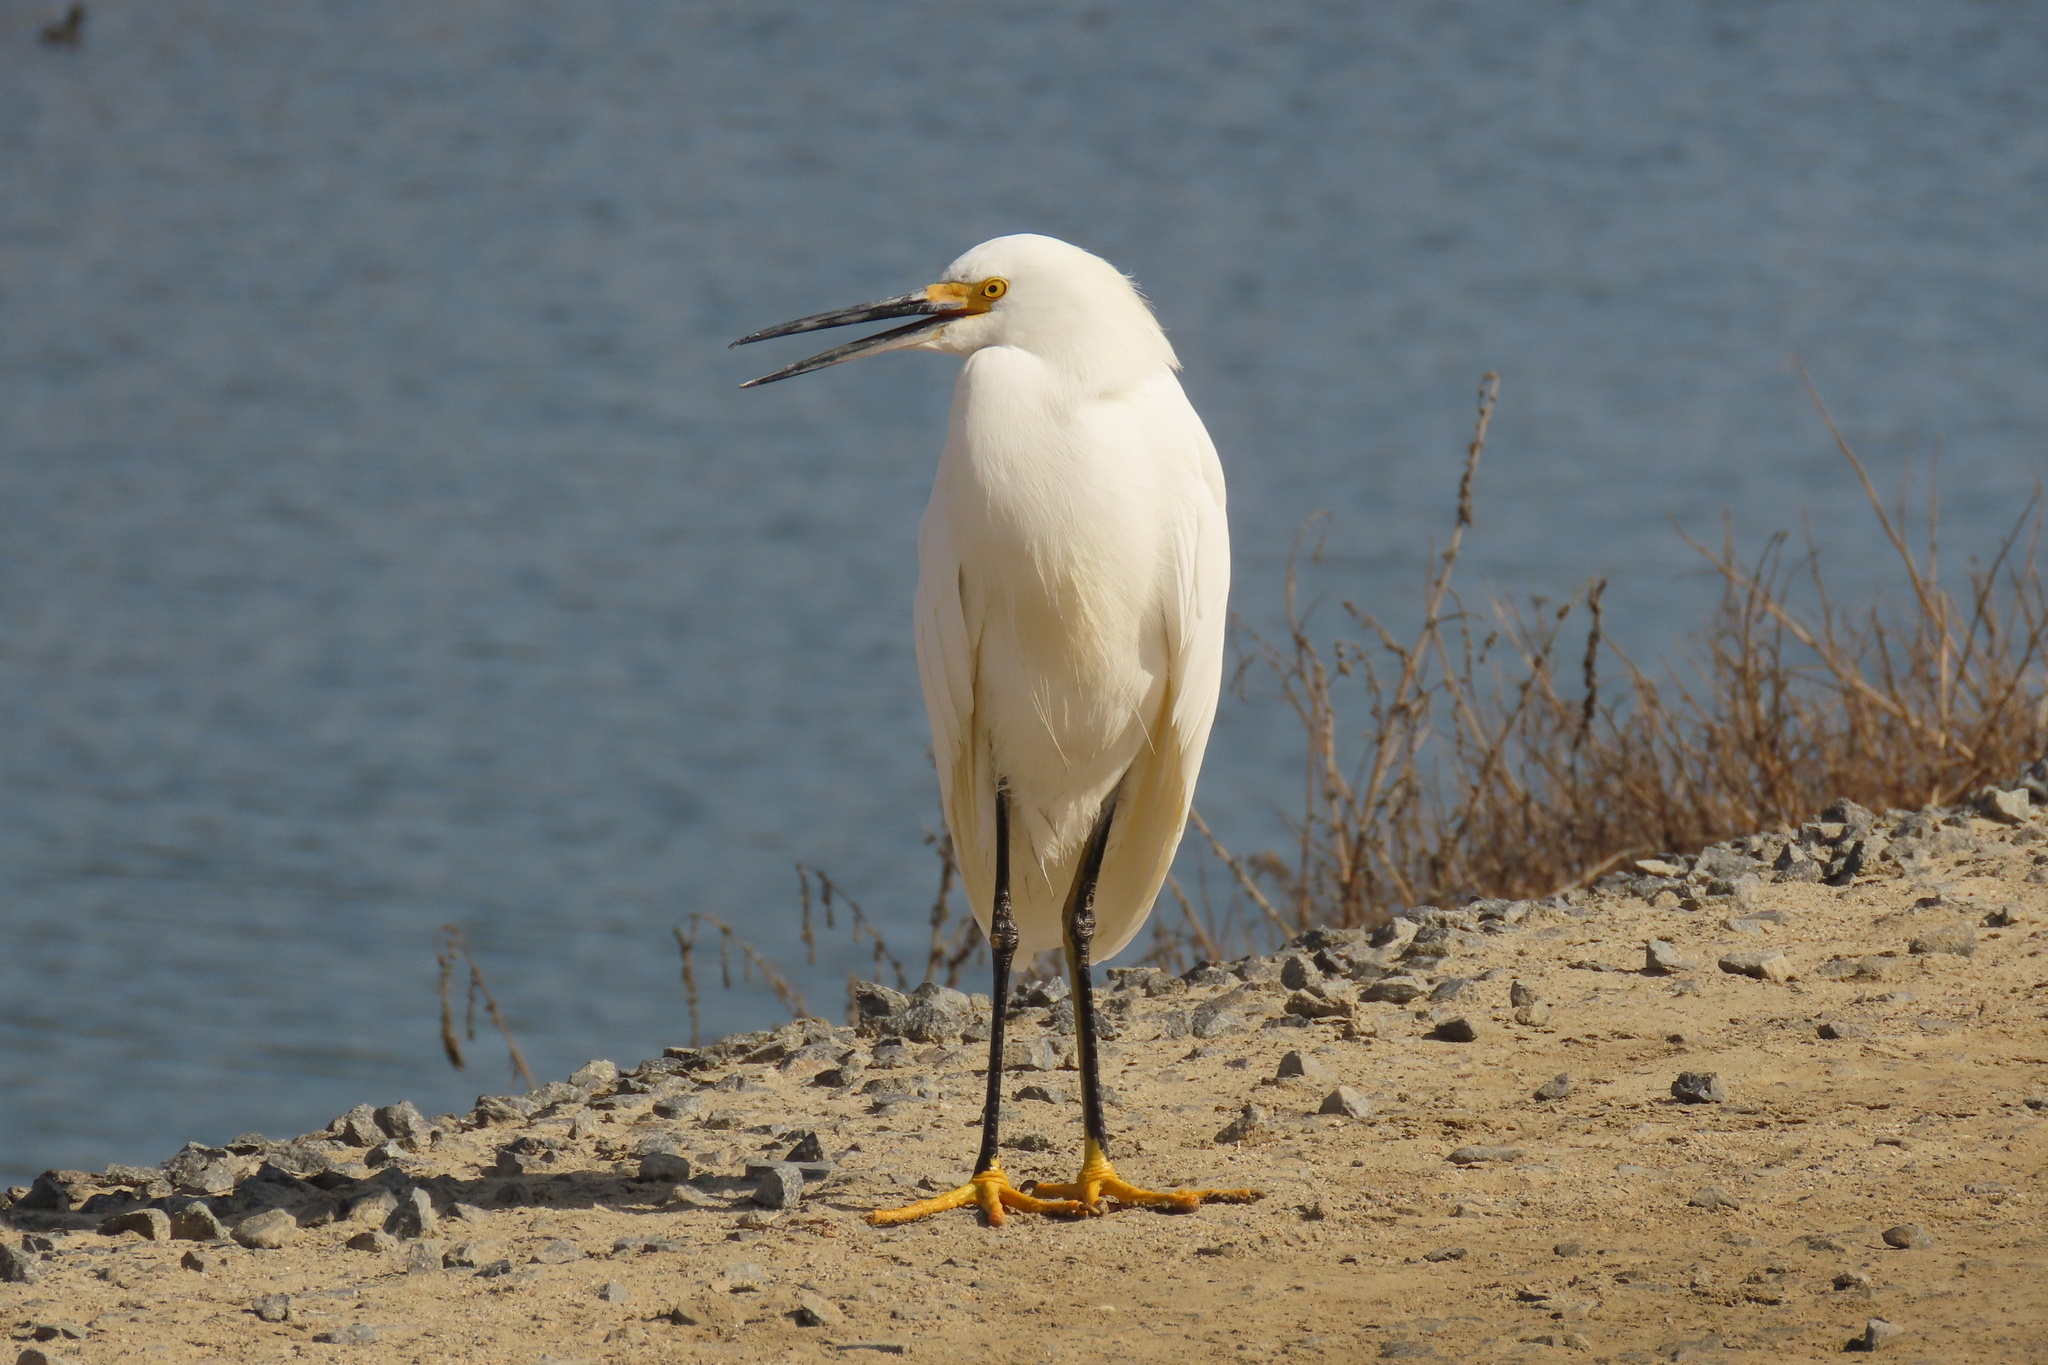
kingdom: Animalia
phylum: Chordata
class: Aves
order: Pelecaniformes
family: Ardeidae
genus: Egretta
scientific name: Egretta thula
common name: Snowy egret
